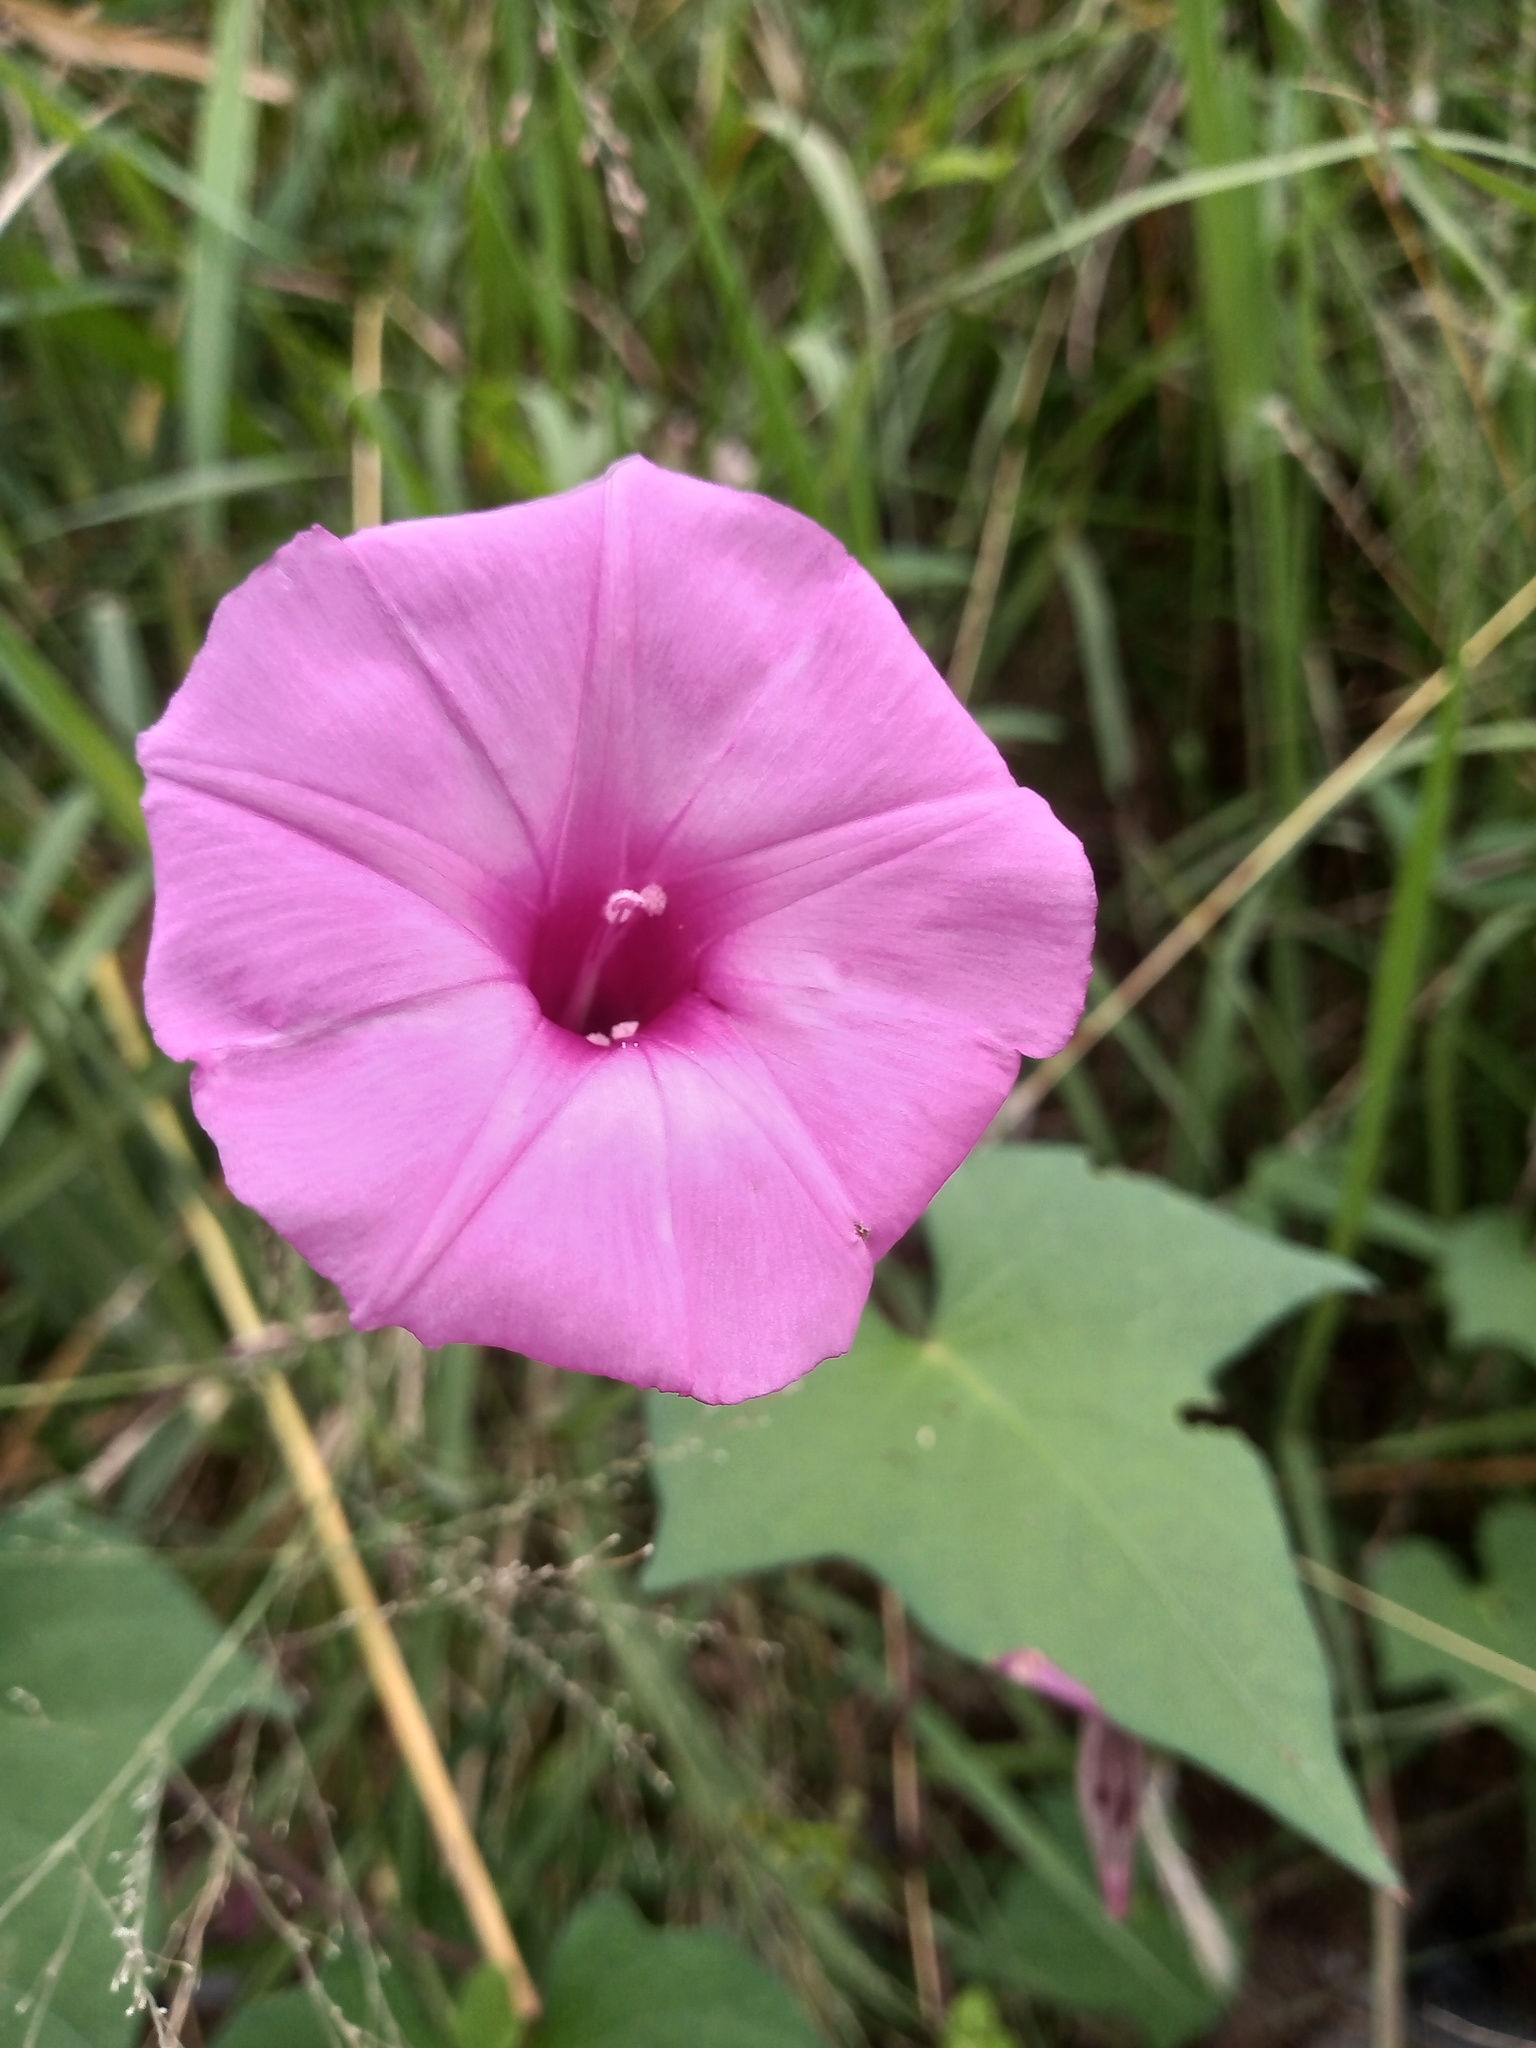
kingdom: Plantae
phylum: Tracheophyta
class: Magnoliopsida
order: Solanales
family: Convolvulaceae
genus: Ipomoea
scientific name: Ipomoea cordatotriloba
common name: Cotton morning glory
